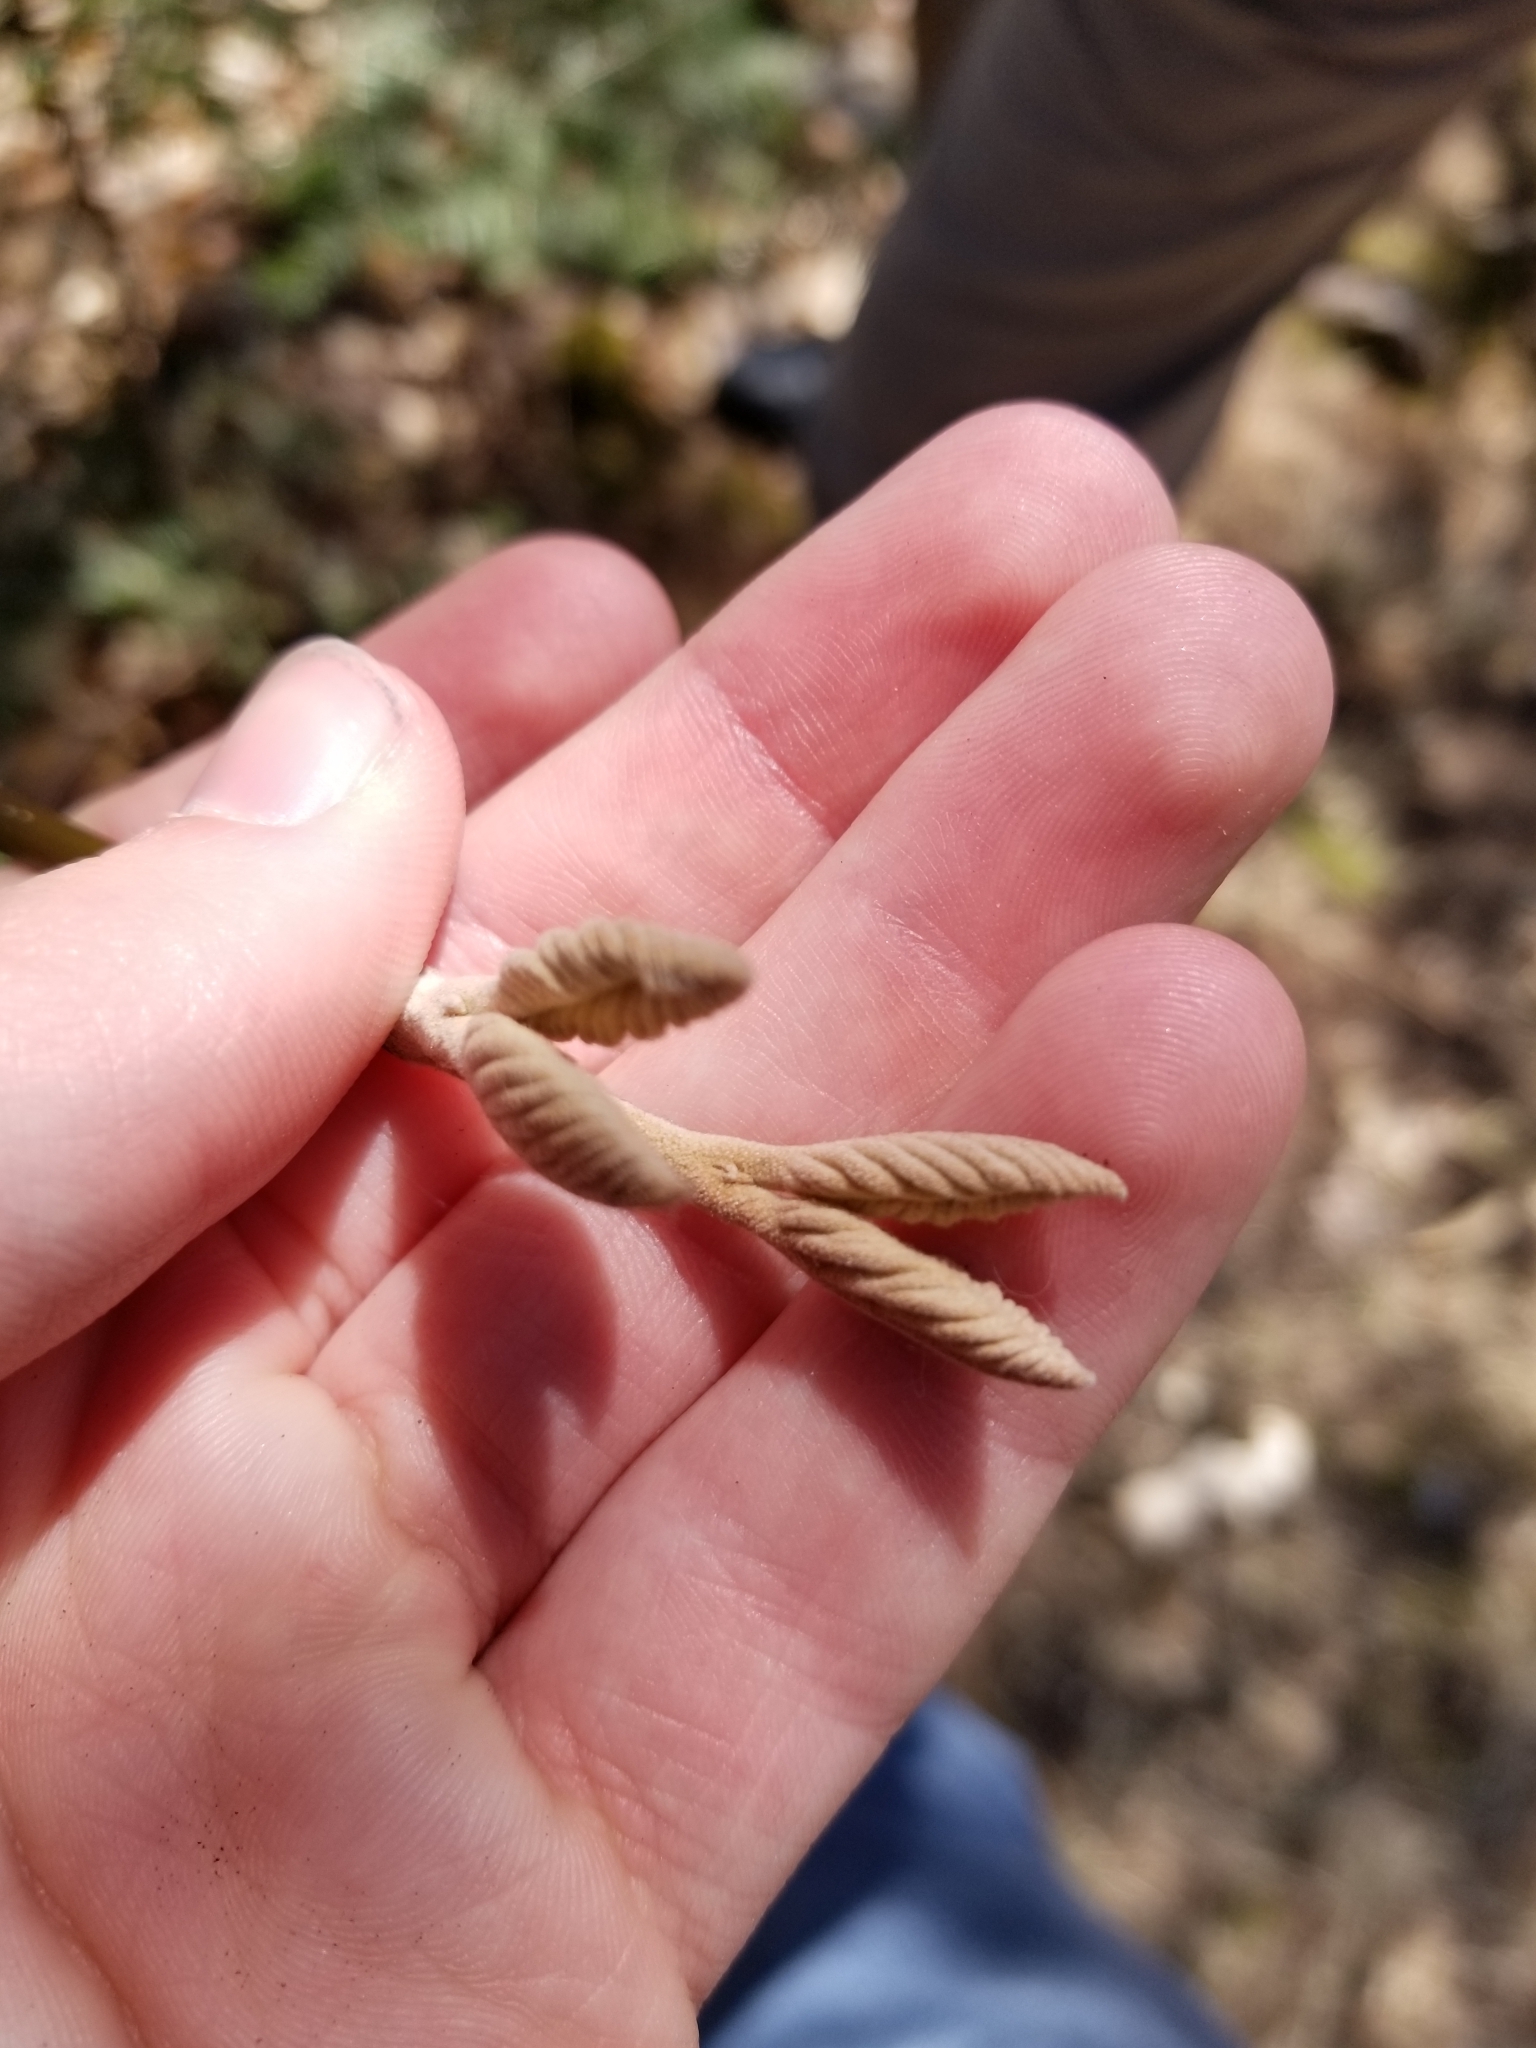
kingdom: Plantae
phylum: Tracheophyta
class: Magnoliopsida
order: Dipsacales
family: Viburnaceae
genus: Viburnum
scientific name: Viburnum lantanoides
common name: Hobblebush
